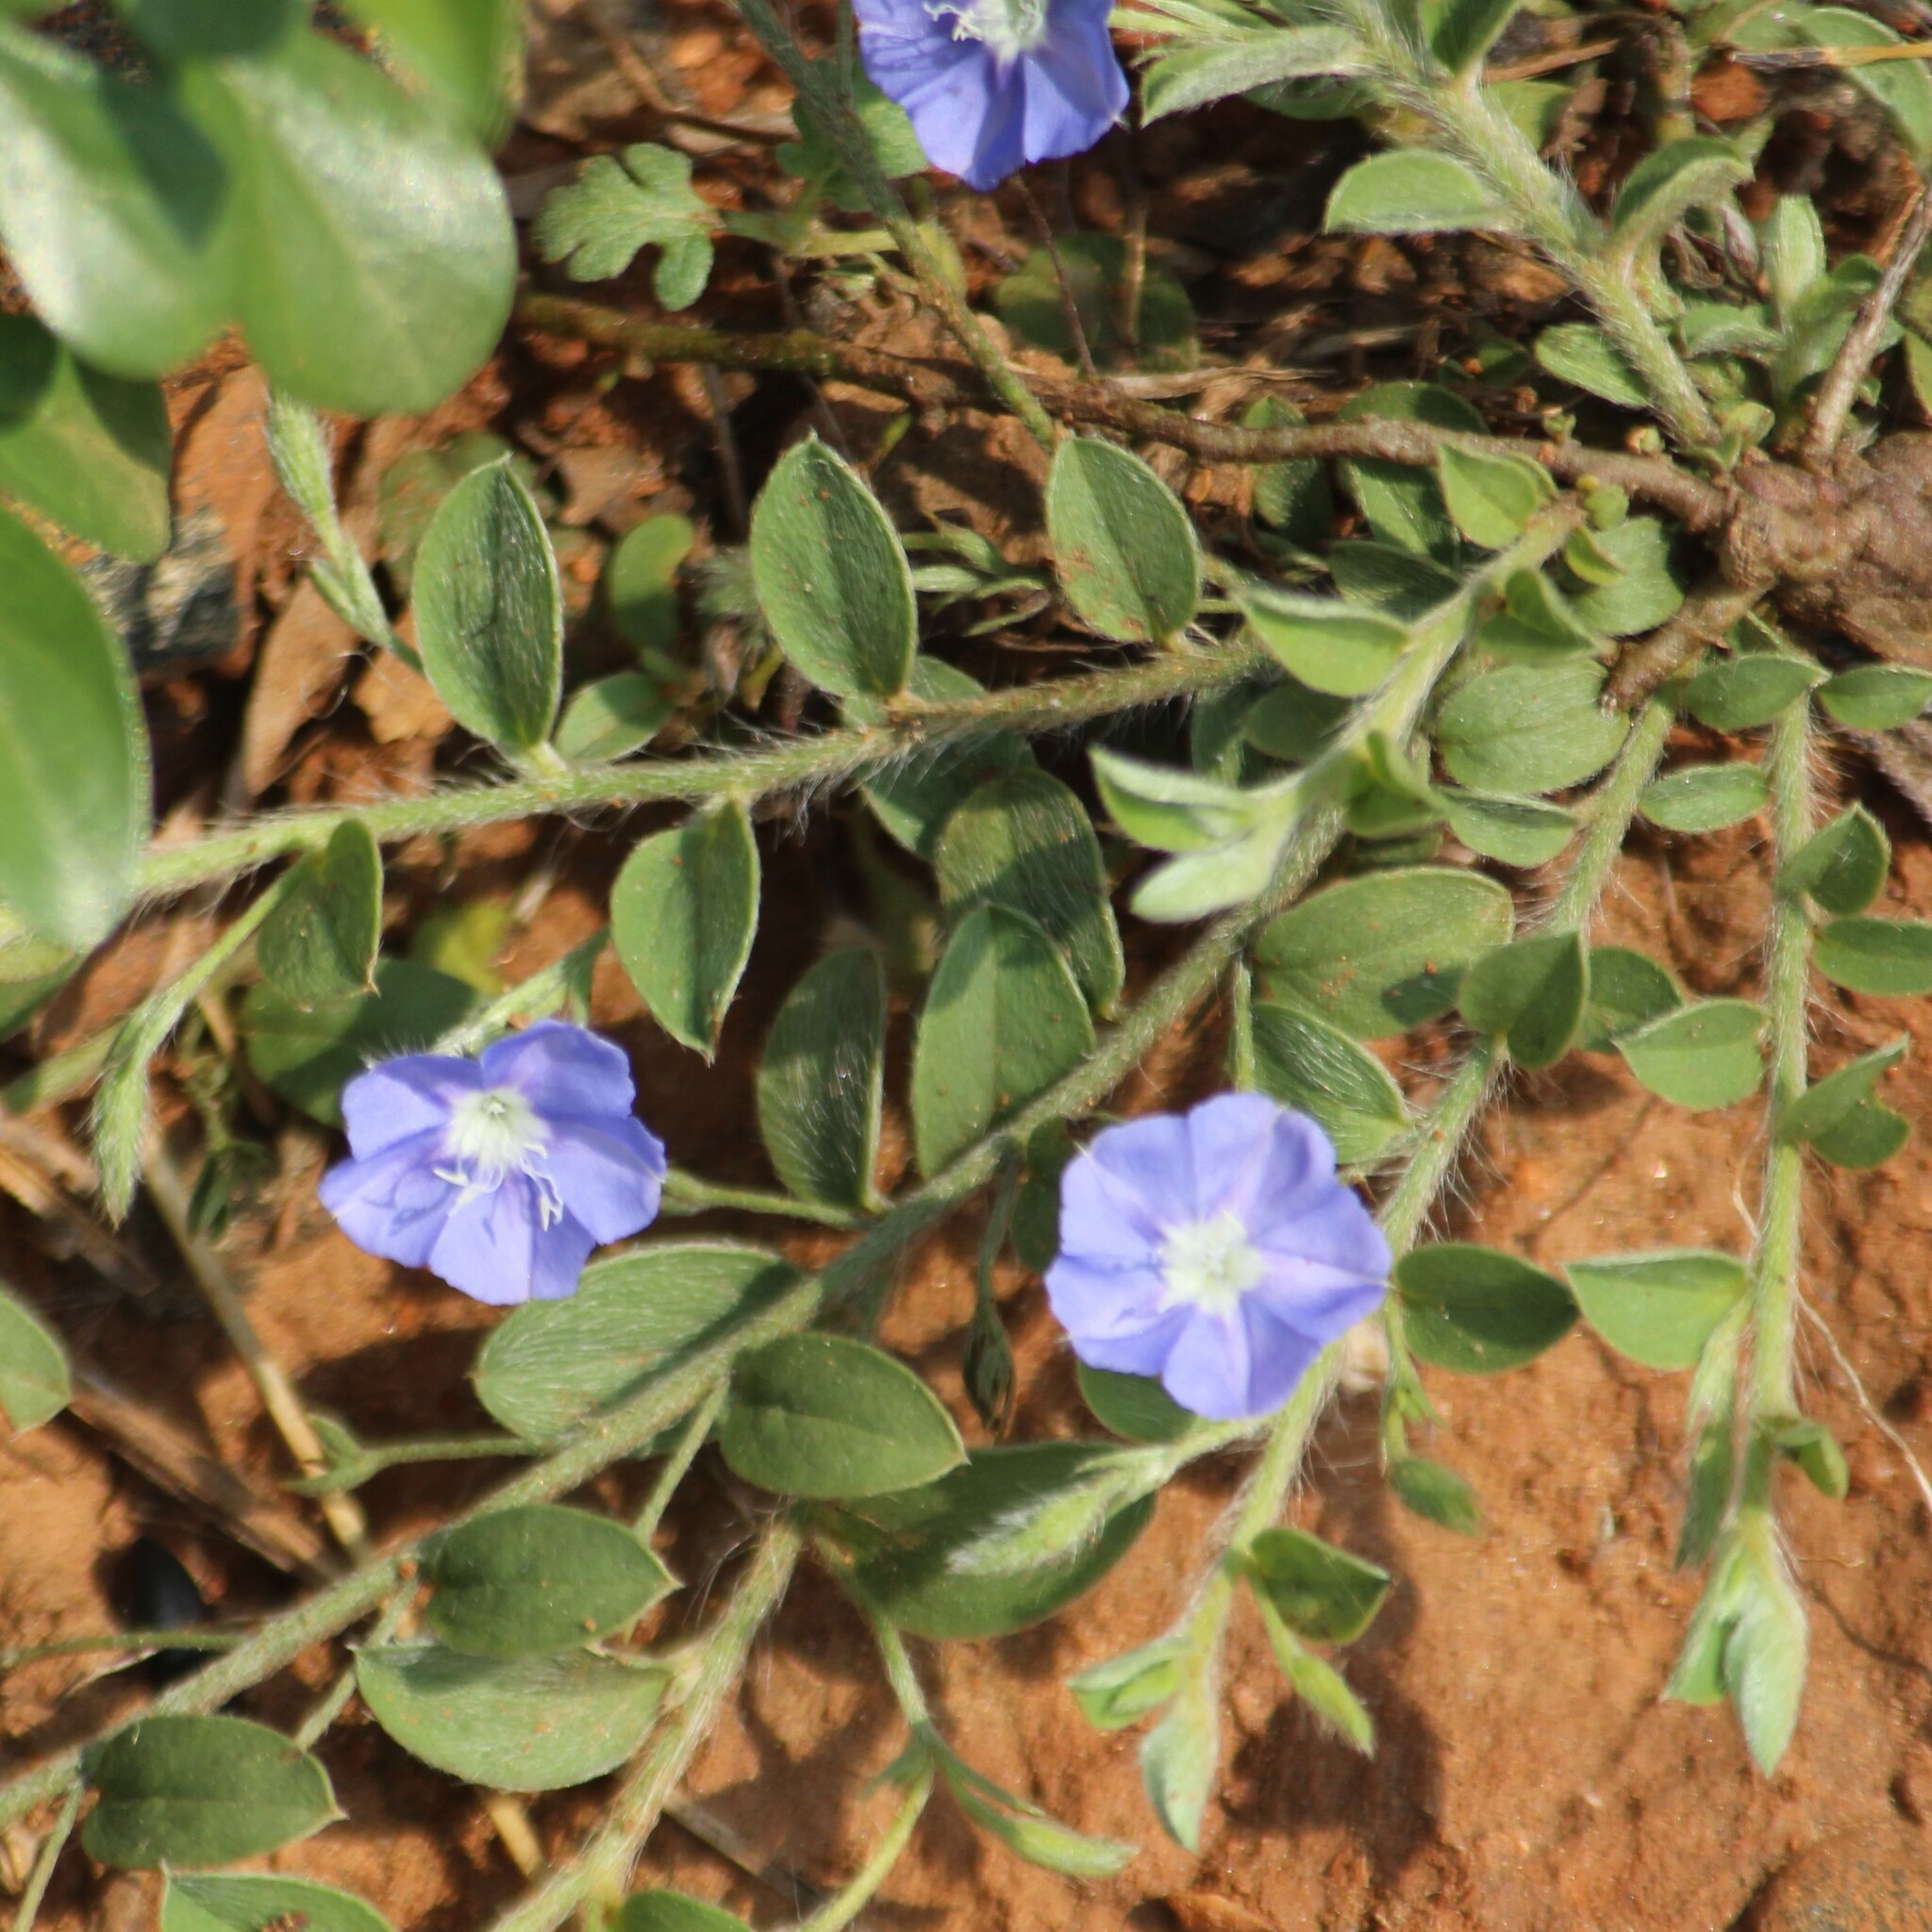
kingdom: Plantae
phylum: Tracheophyta
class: Magnoliopsida
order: Solanales
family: Convolvulaceae
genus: Evolvulus
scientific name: Evolvulus alsinoides
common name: Slender dwarf morning-glory
